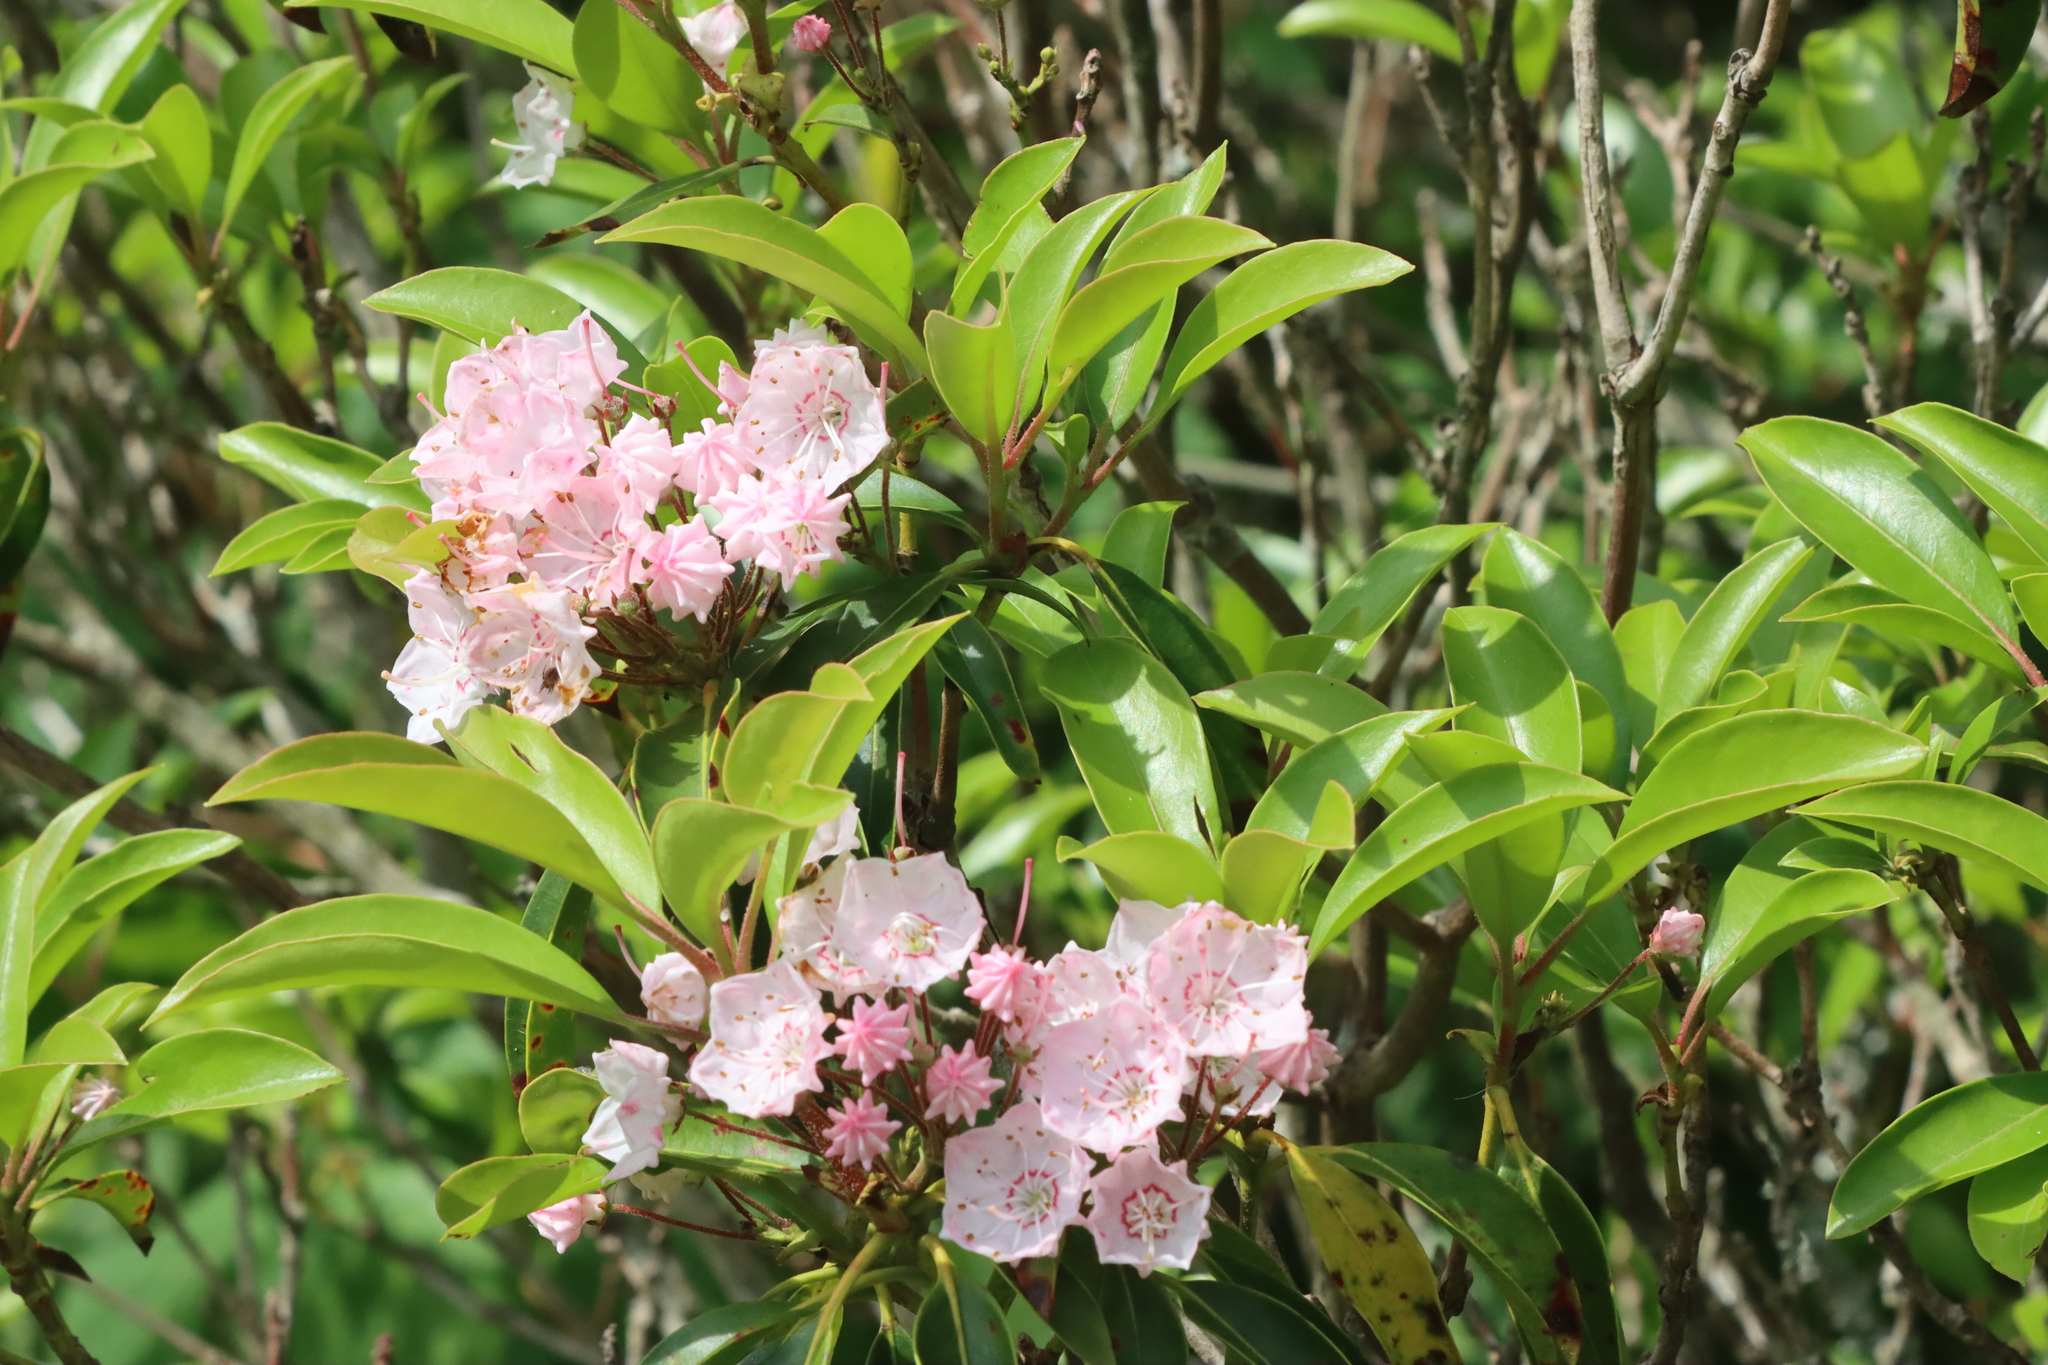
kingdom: Plantae
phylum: Tracheophyta
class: Magnoliopsida
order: Ericales
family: Ericaceae
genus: Kalmia
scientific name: Kalmia latifolia
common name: Mountain-laurel
